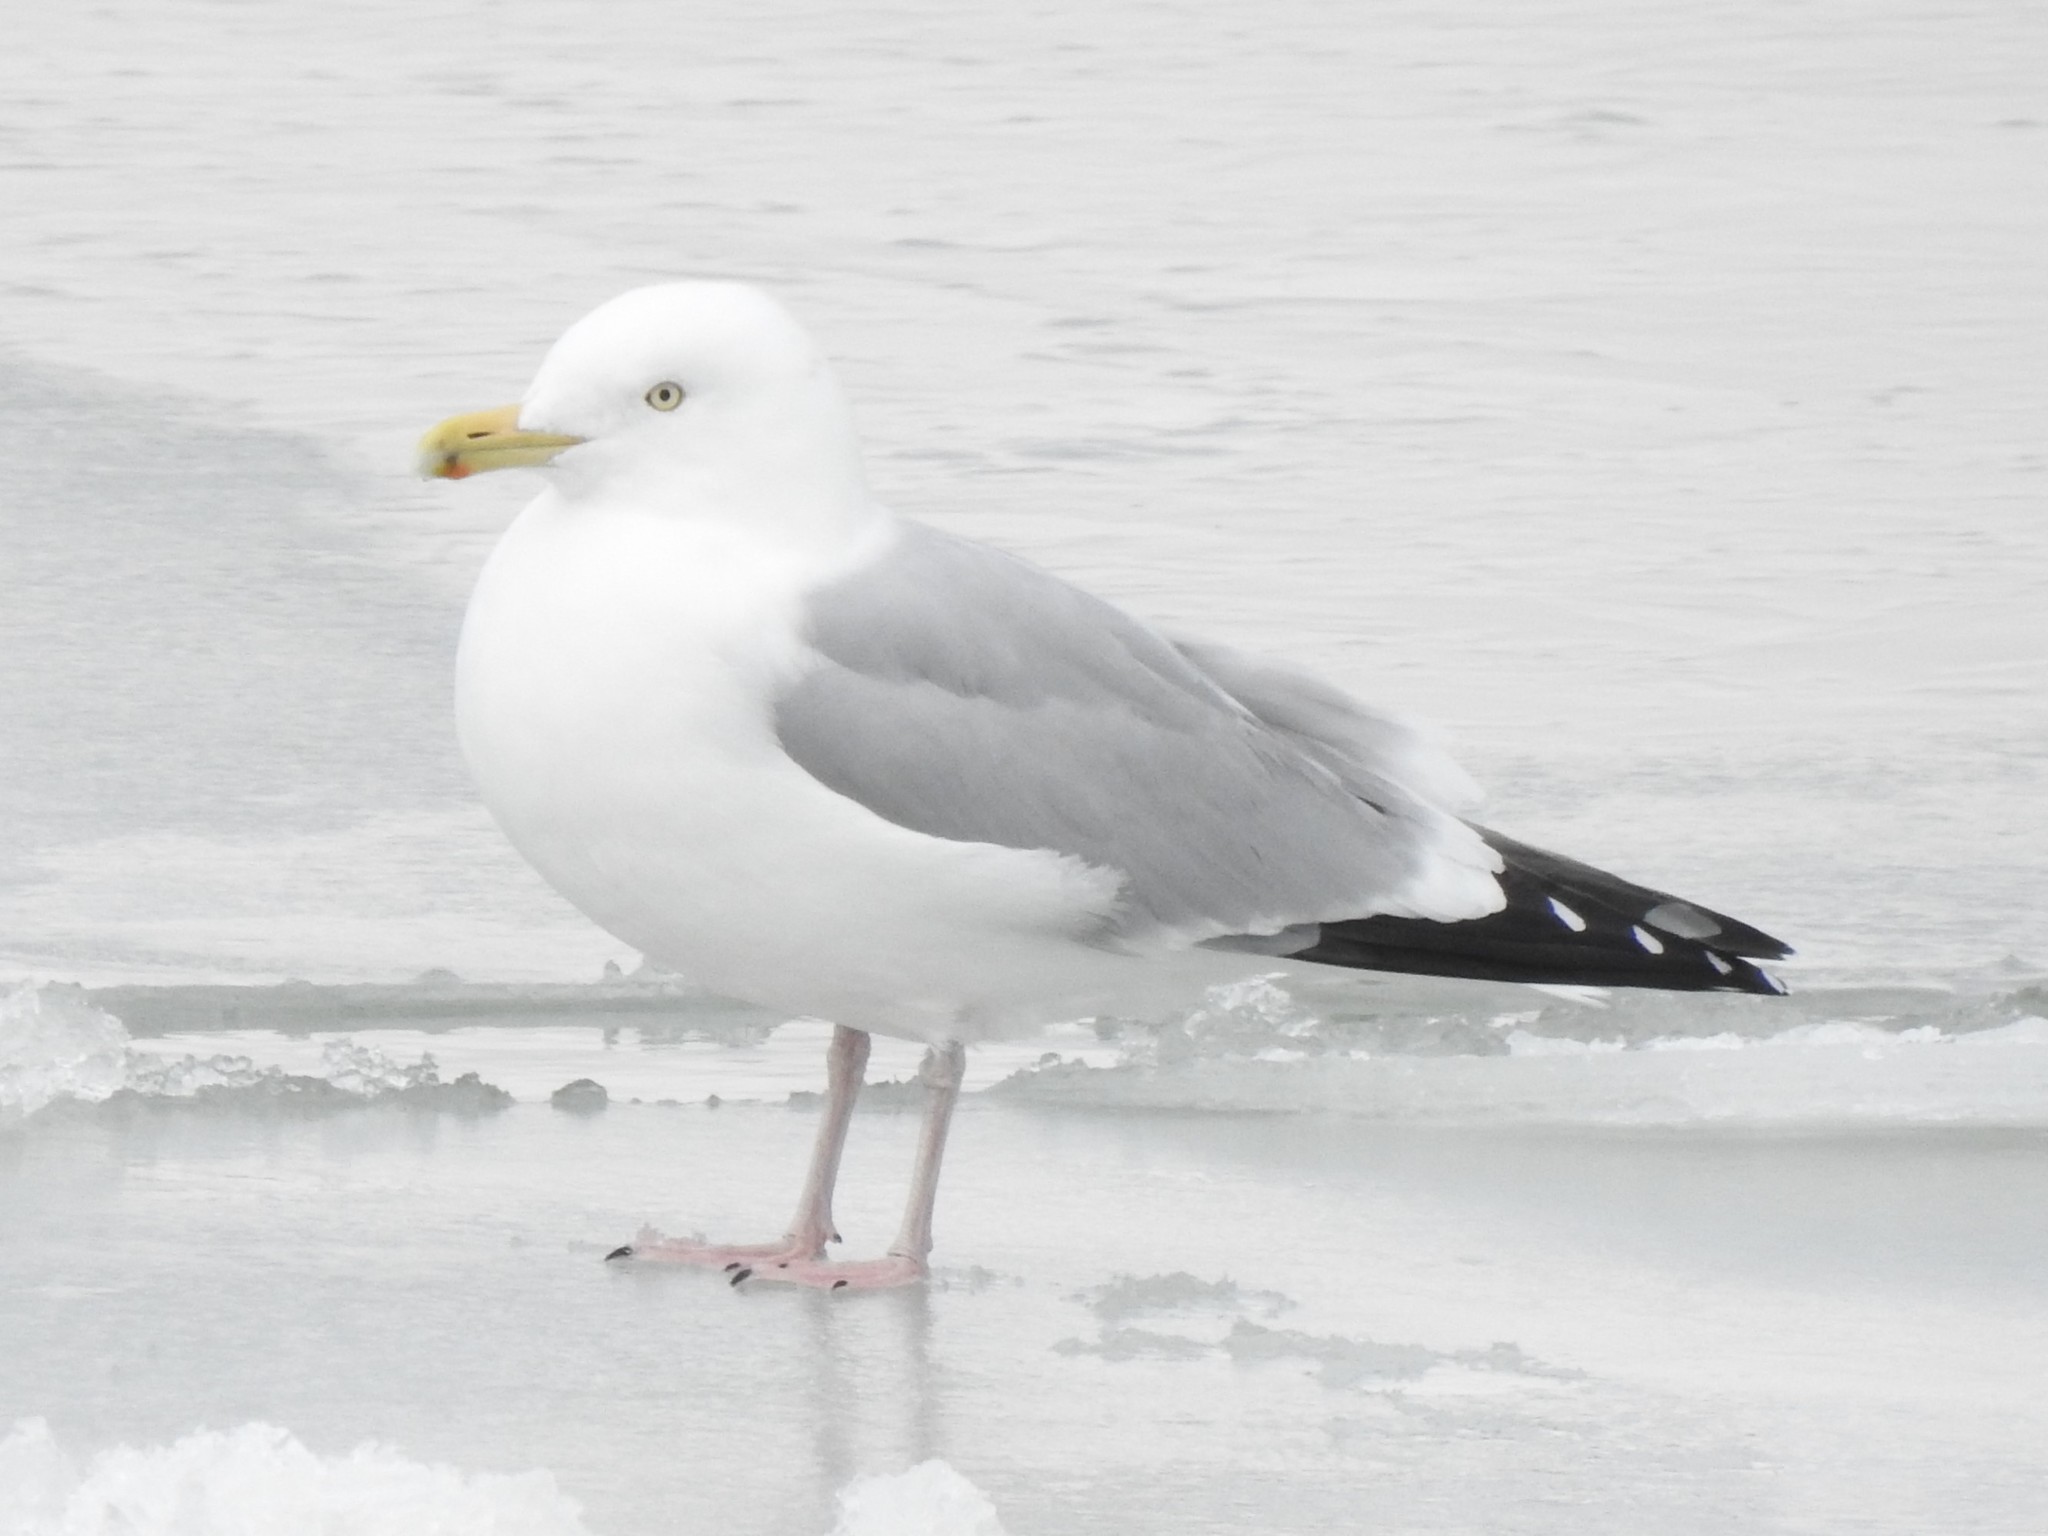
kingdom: Animalia
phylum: Chordata
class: Aves
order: Charadriiformes
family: Laridae
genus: Larus
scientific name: Larus argentatus
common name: Herring gull
